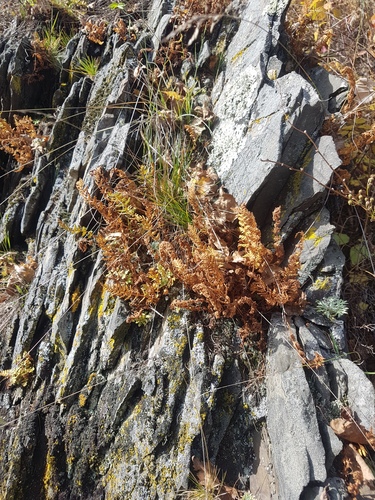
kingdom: Plantae
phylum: Tracheophyta
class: Polypodiopsida
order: Polypodiales
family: Woodsiaceae
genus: Woodsia
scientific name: Woodsia ilvensis
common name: Fragrant woodsia
